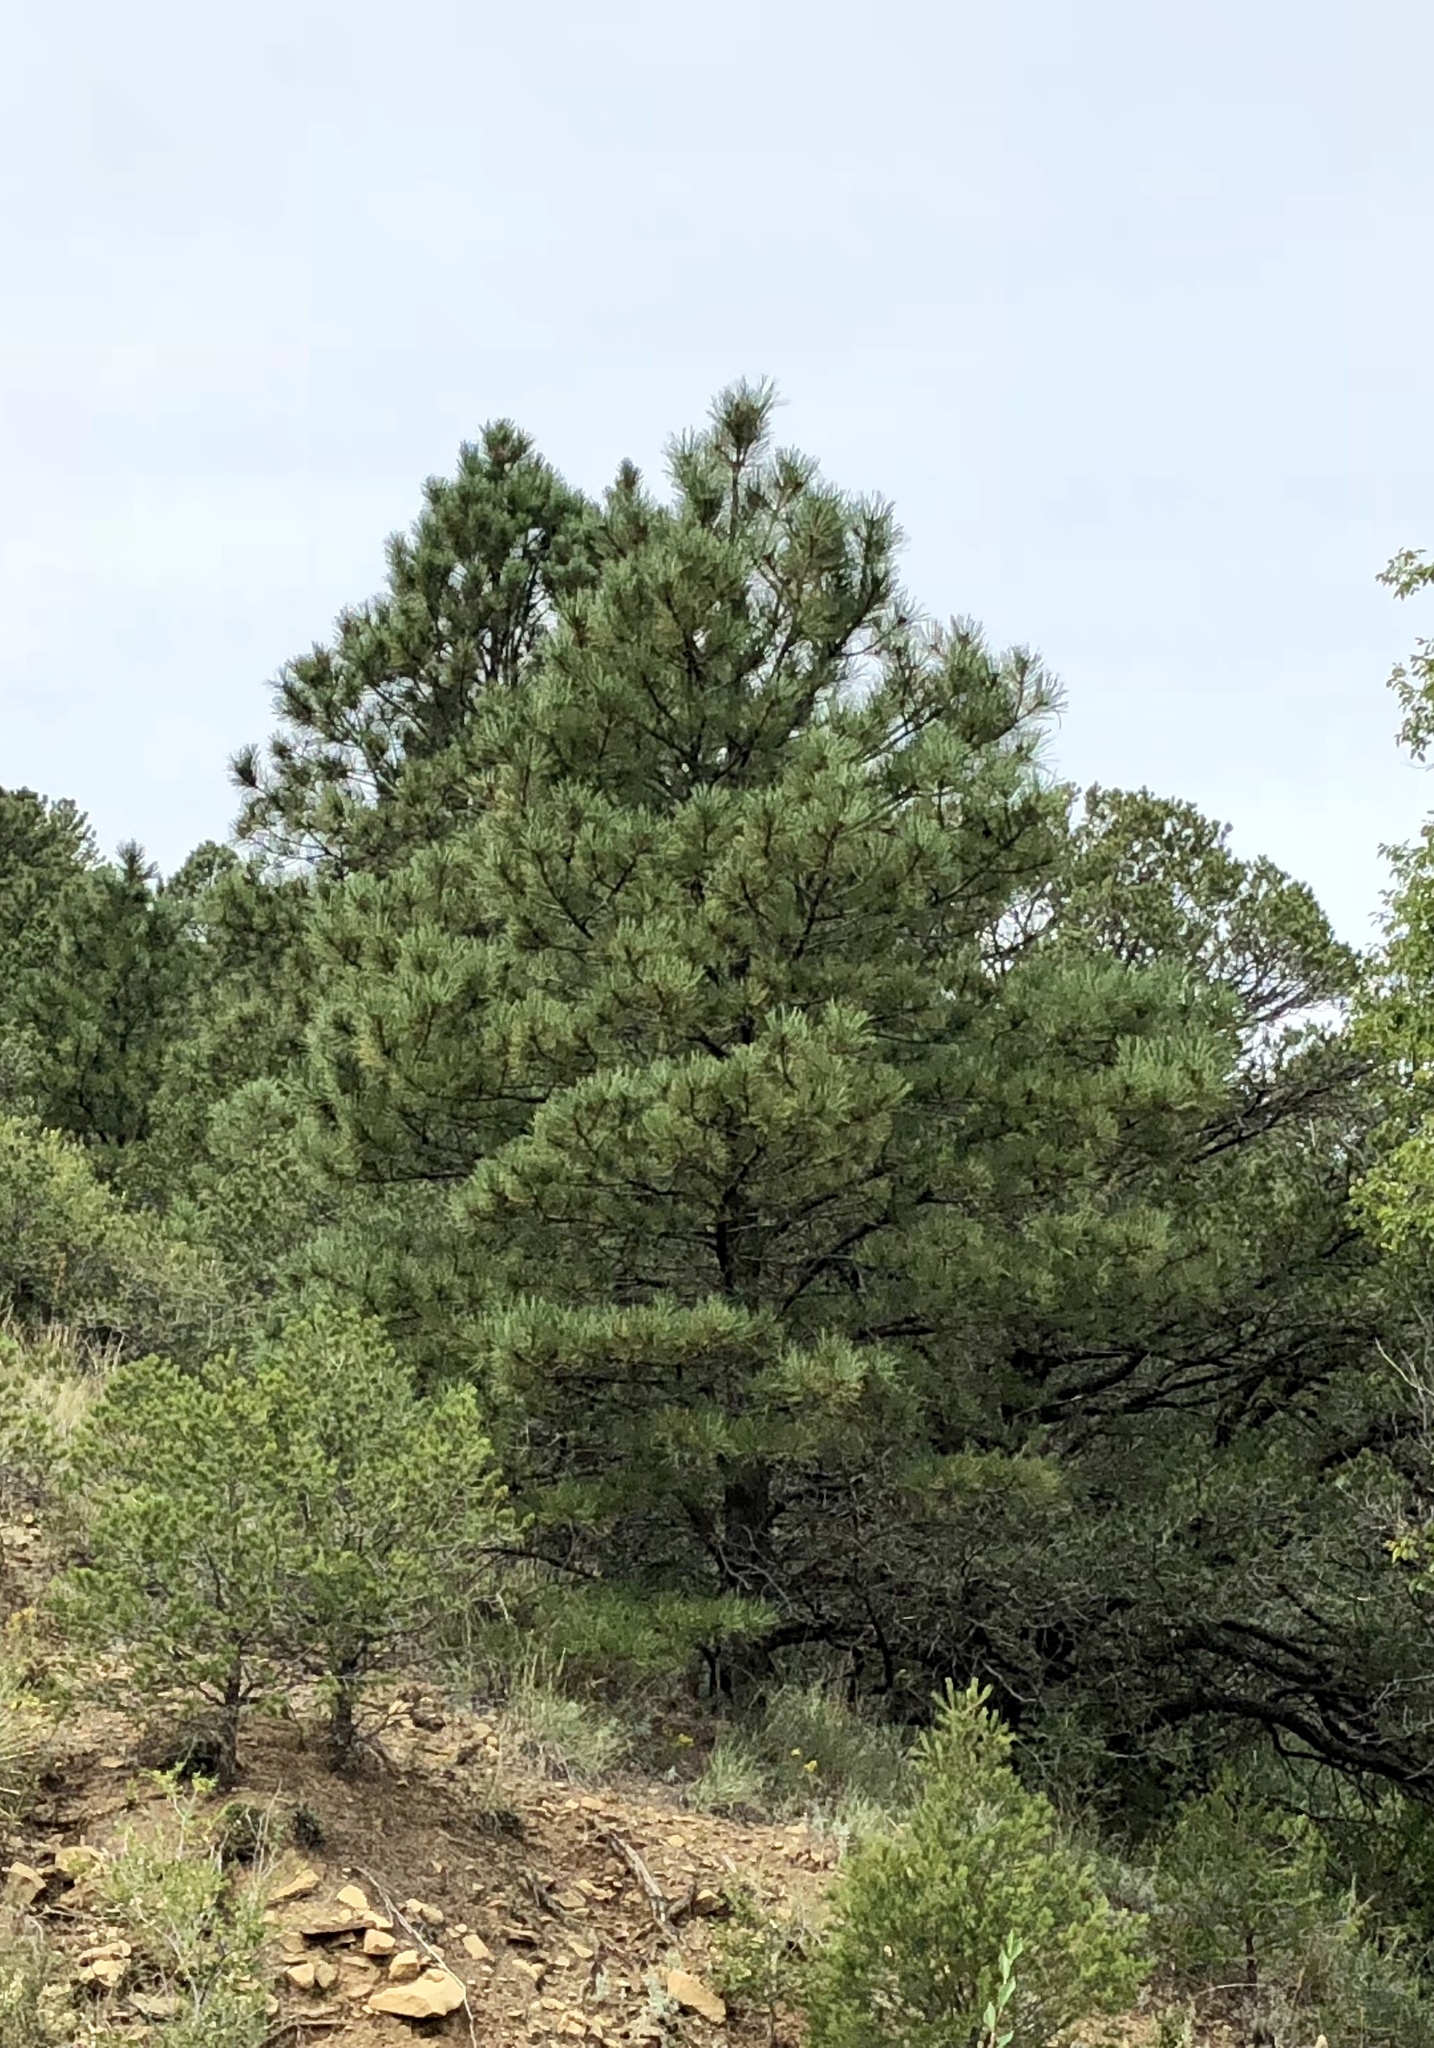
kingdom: Plantae
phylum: Tracheophyta
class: Pinopsida
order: Pinales
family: Pinaceae
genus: Pinus
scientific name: Pinus ponderosa
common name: Western yellow-pine
